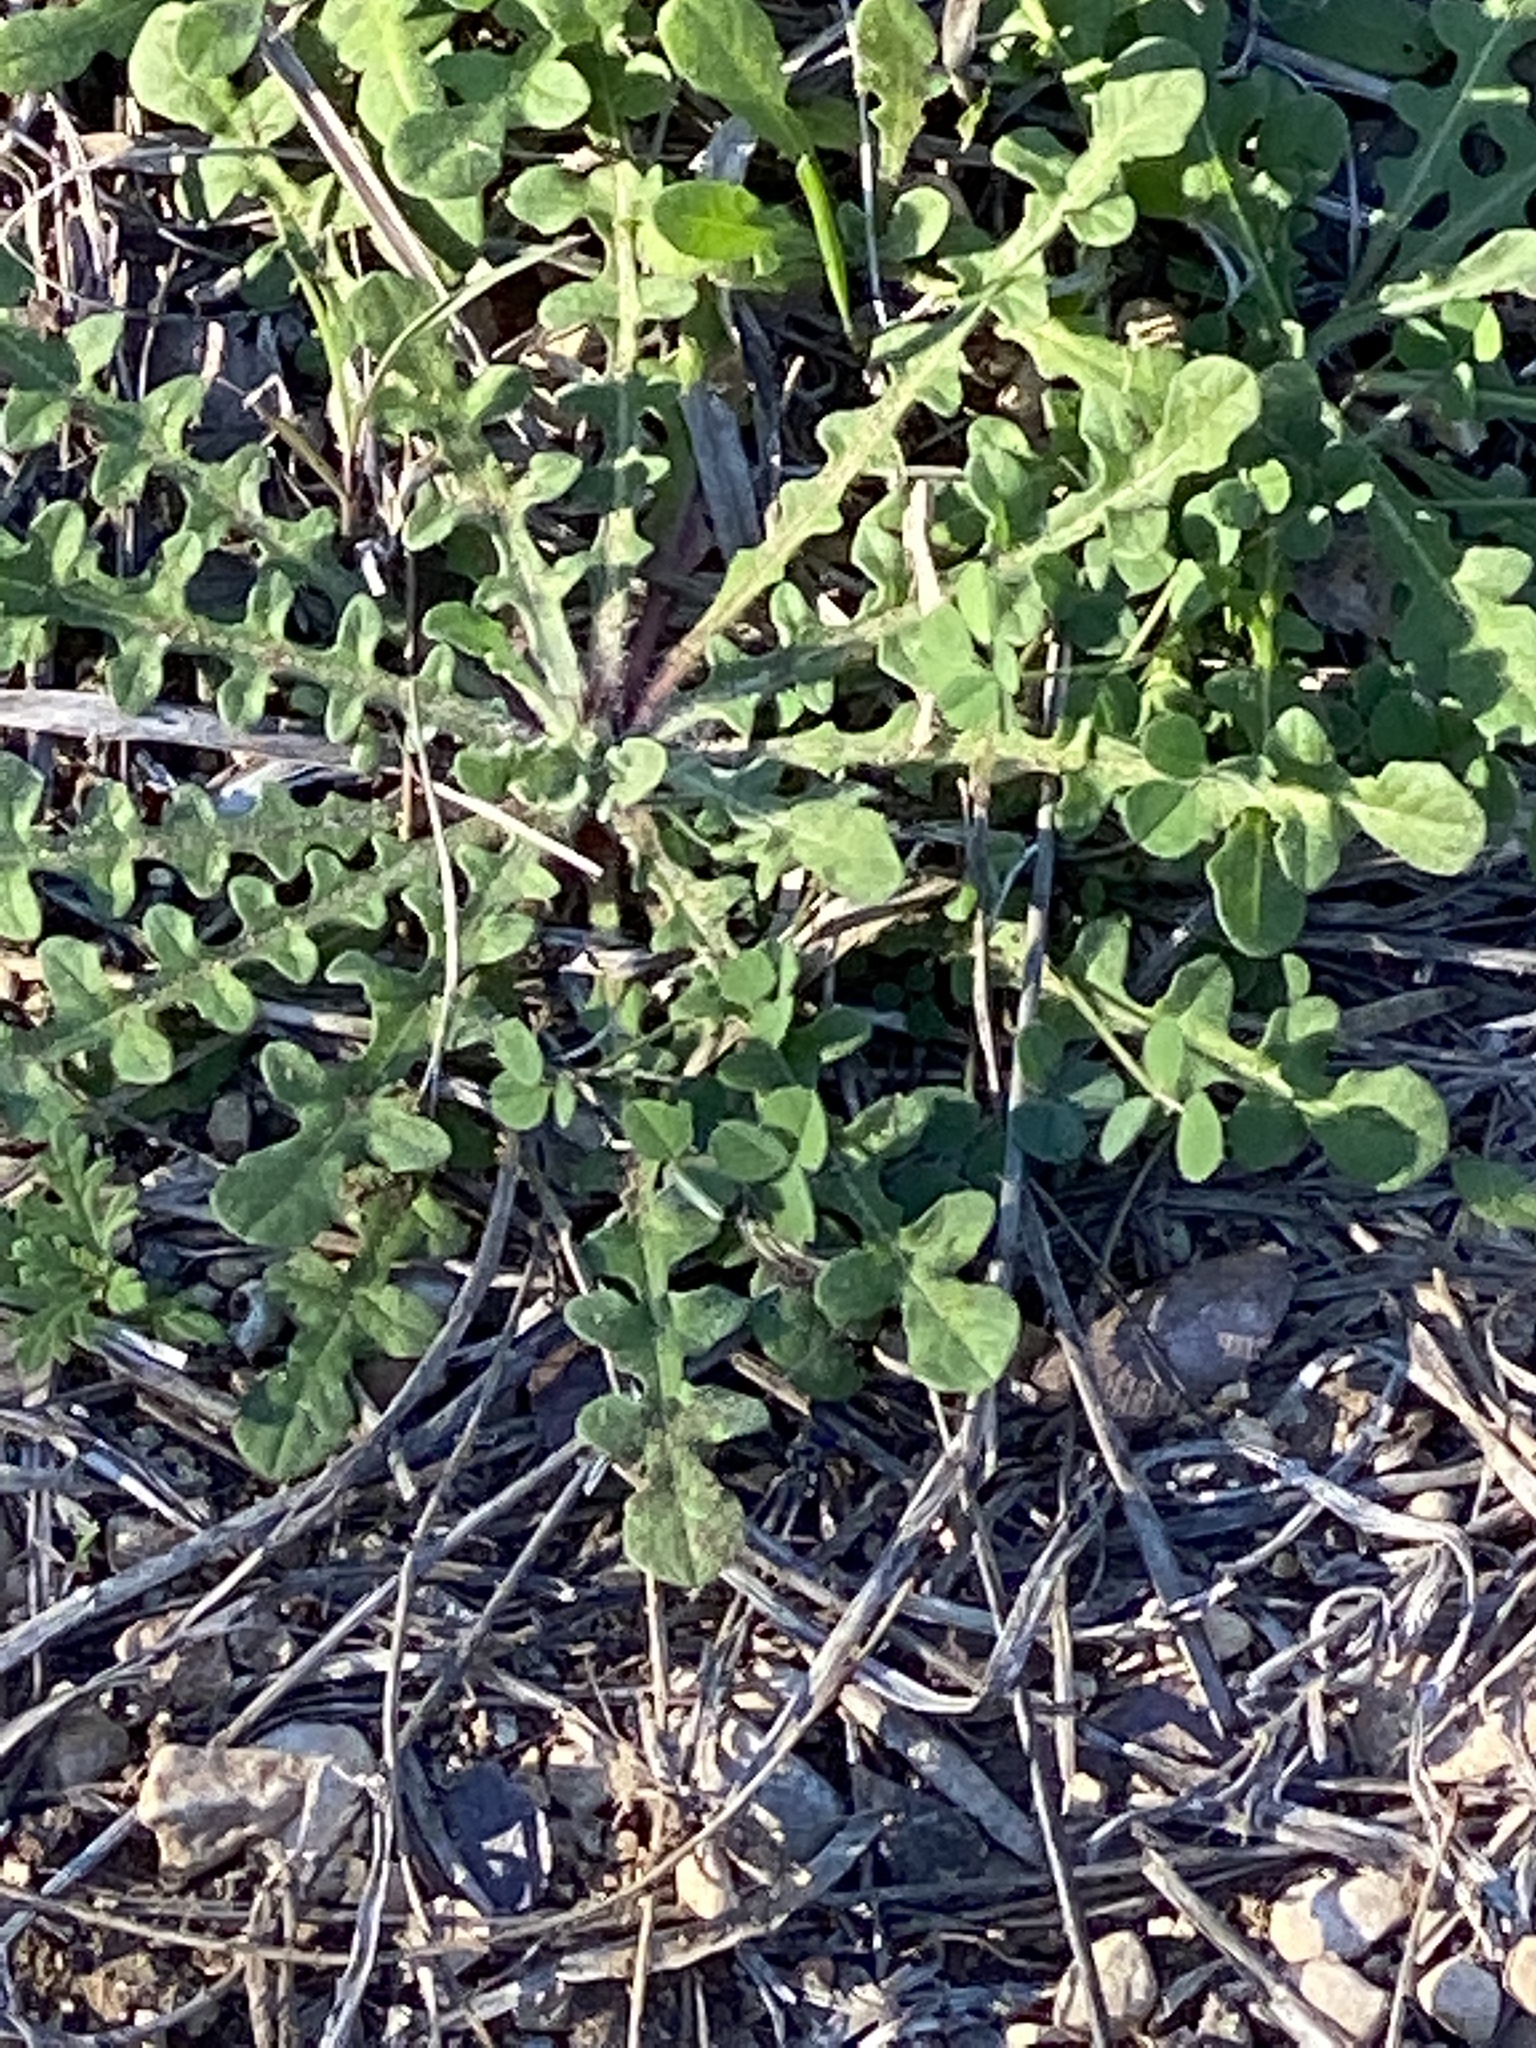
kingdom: Plantae
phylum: Tracheophyta
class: Magnoliopsida
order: Asterales
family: Asteraceae
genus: Centaurea
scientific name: Centaurea melitensis
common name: Maltese star-thistle
